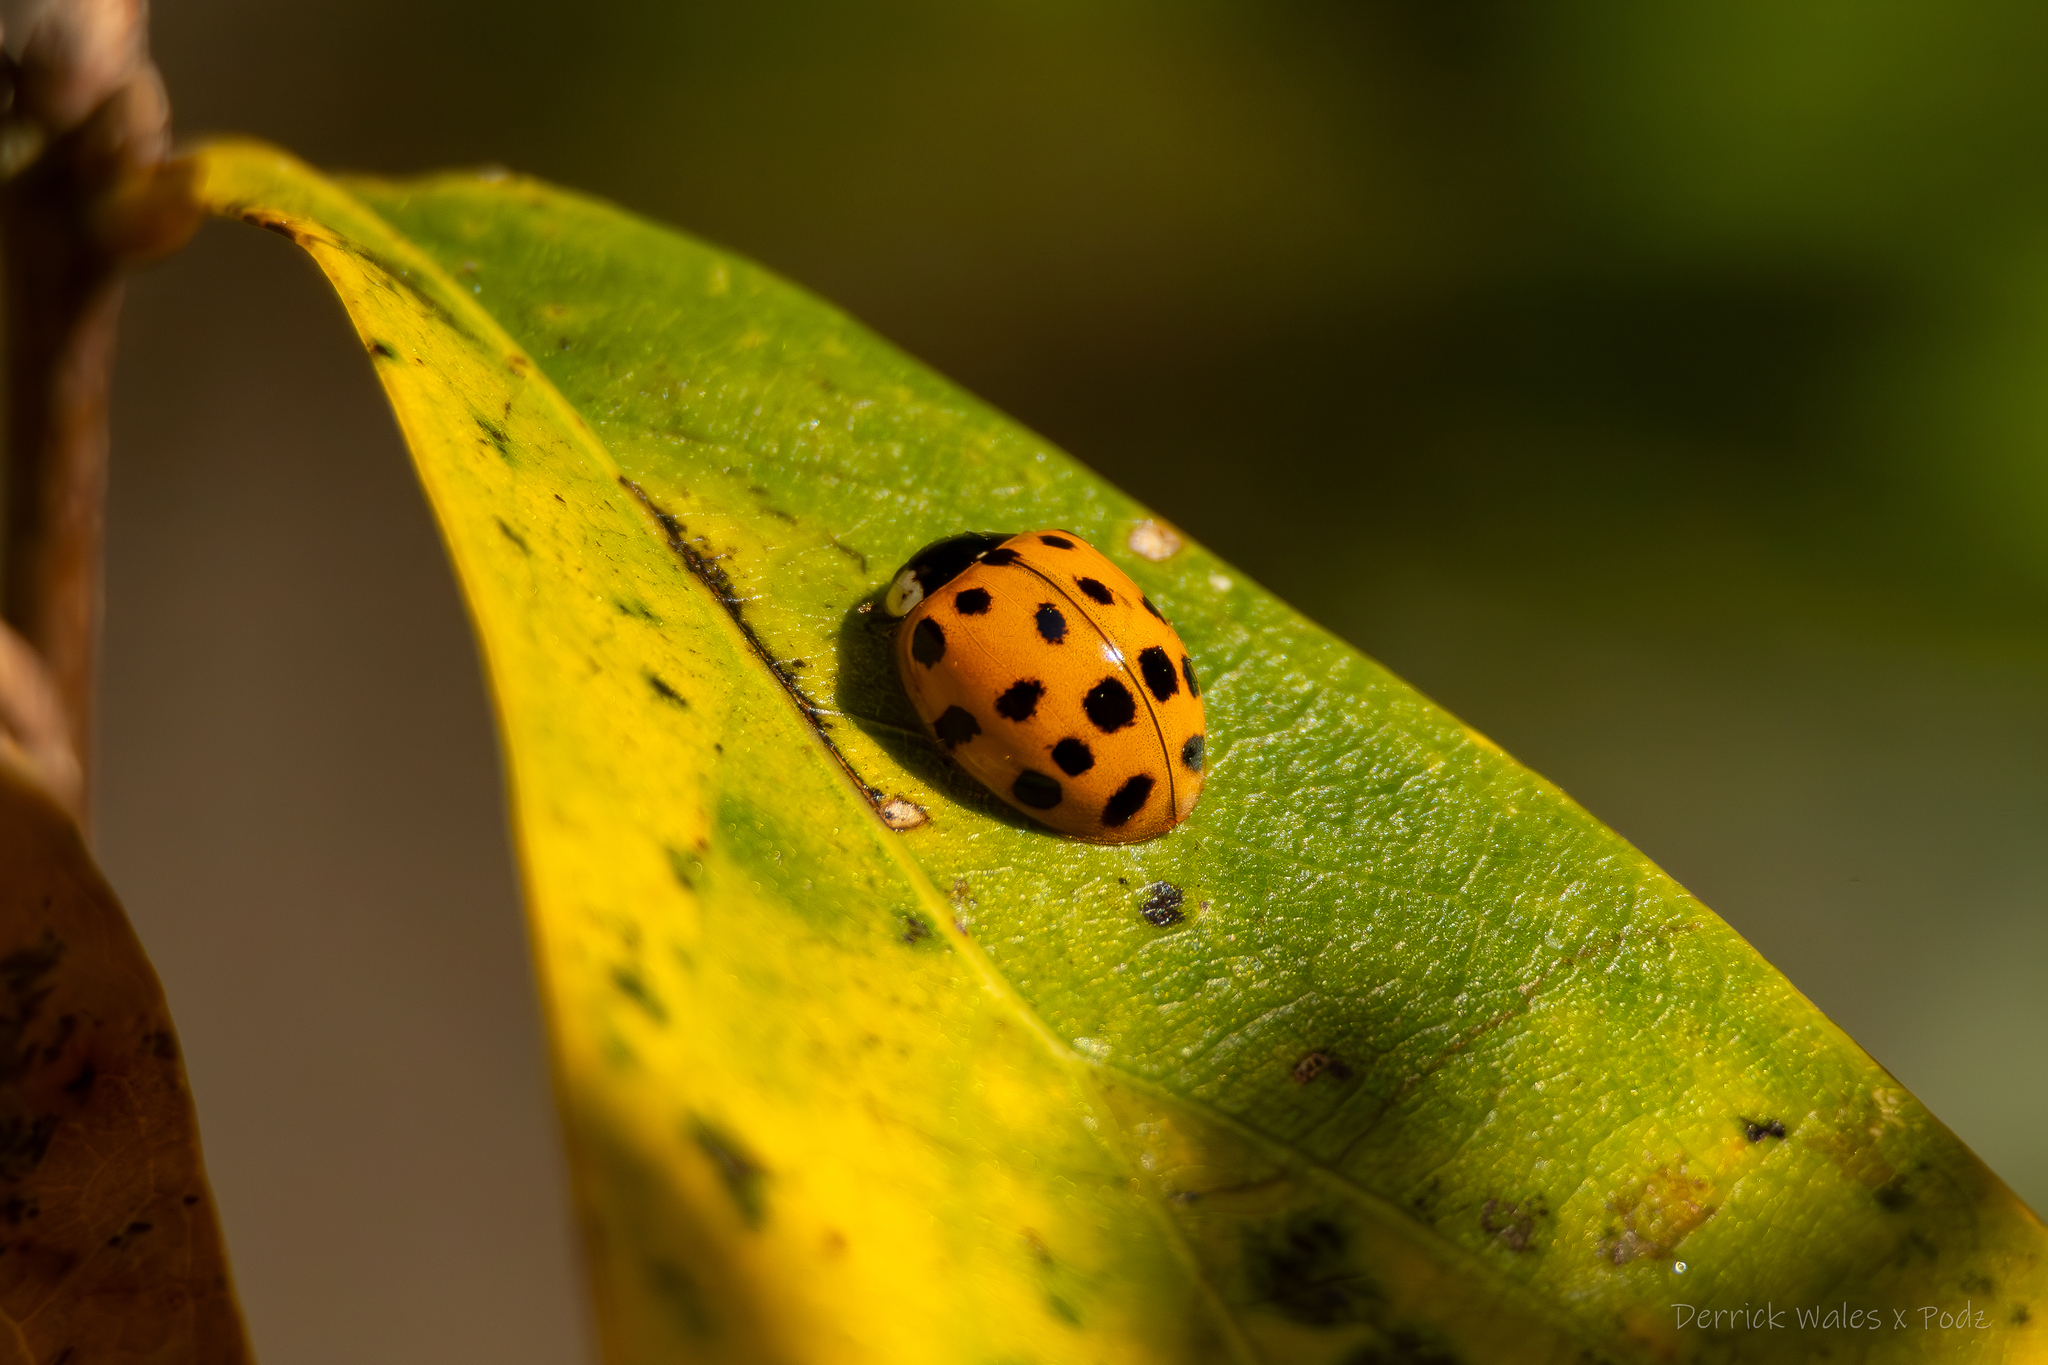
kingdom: Animalia
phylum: Arthropoda
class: Insecta
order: Coleoptera
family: Coccinellidae
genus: Harmonia
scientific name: Harmonia axyridis
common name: Harlequin ladybird
